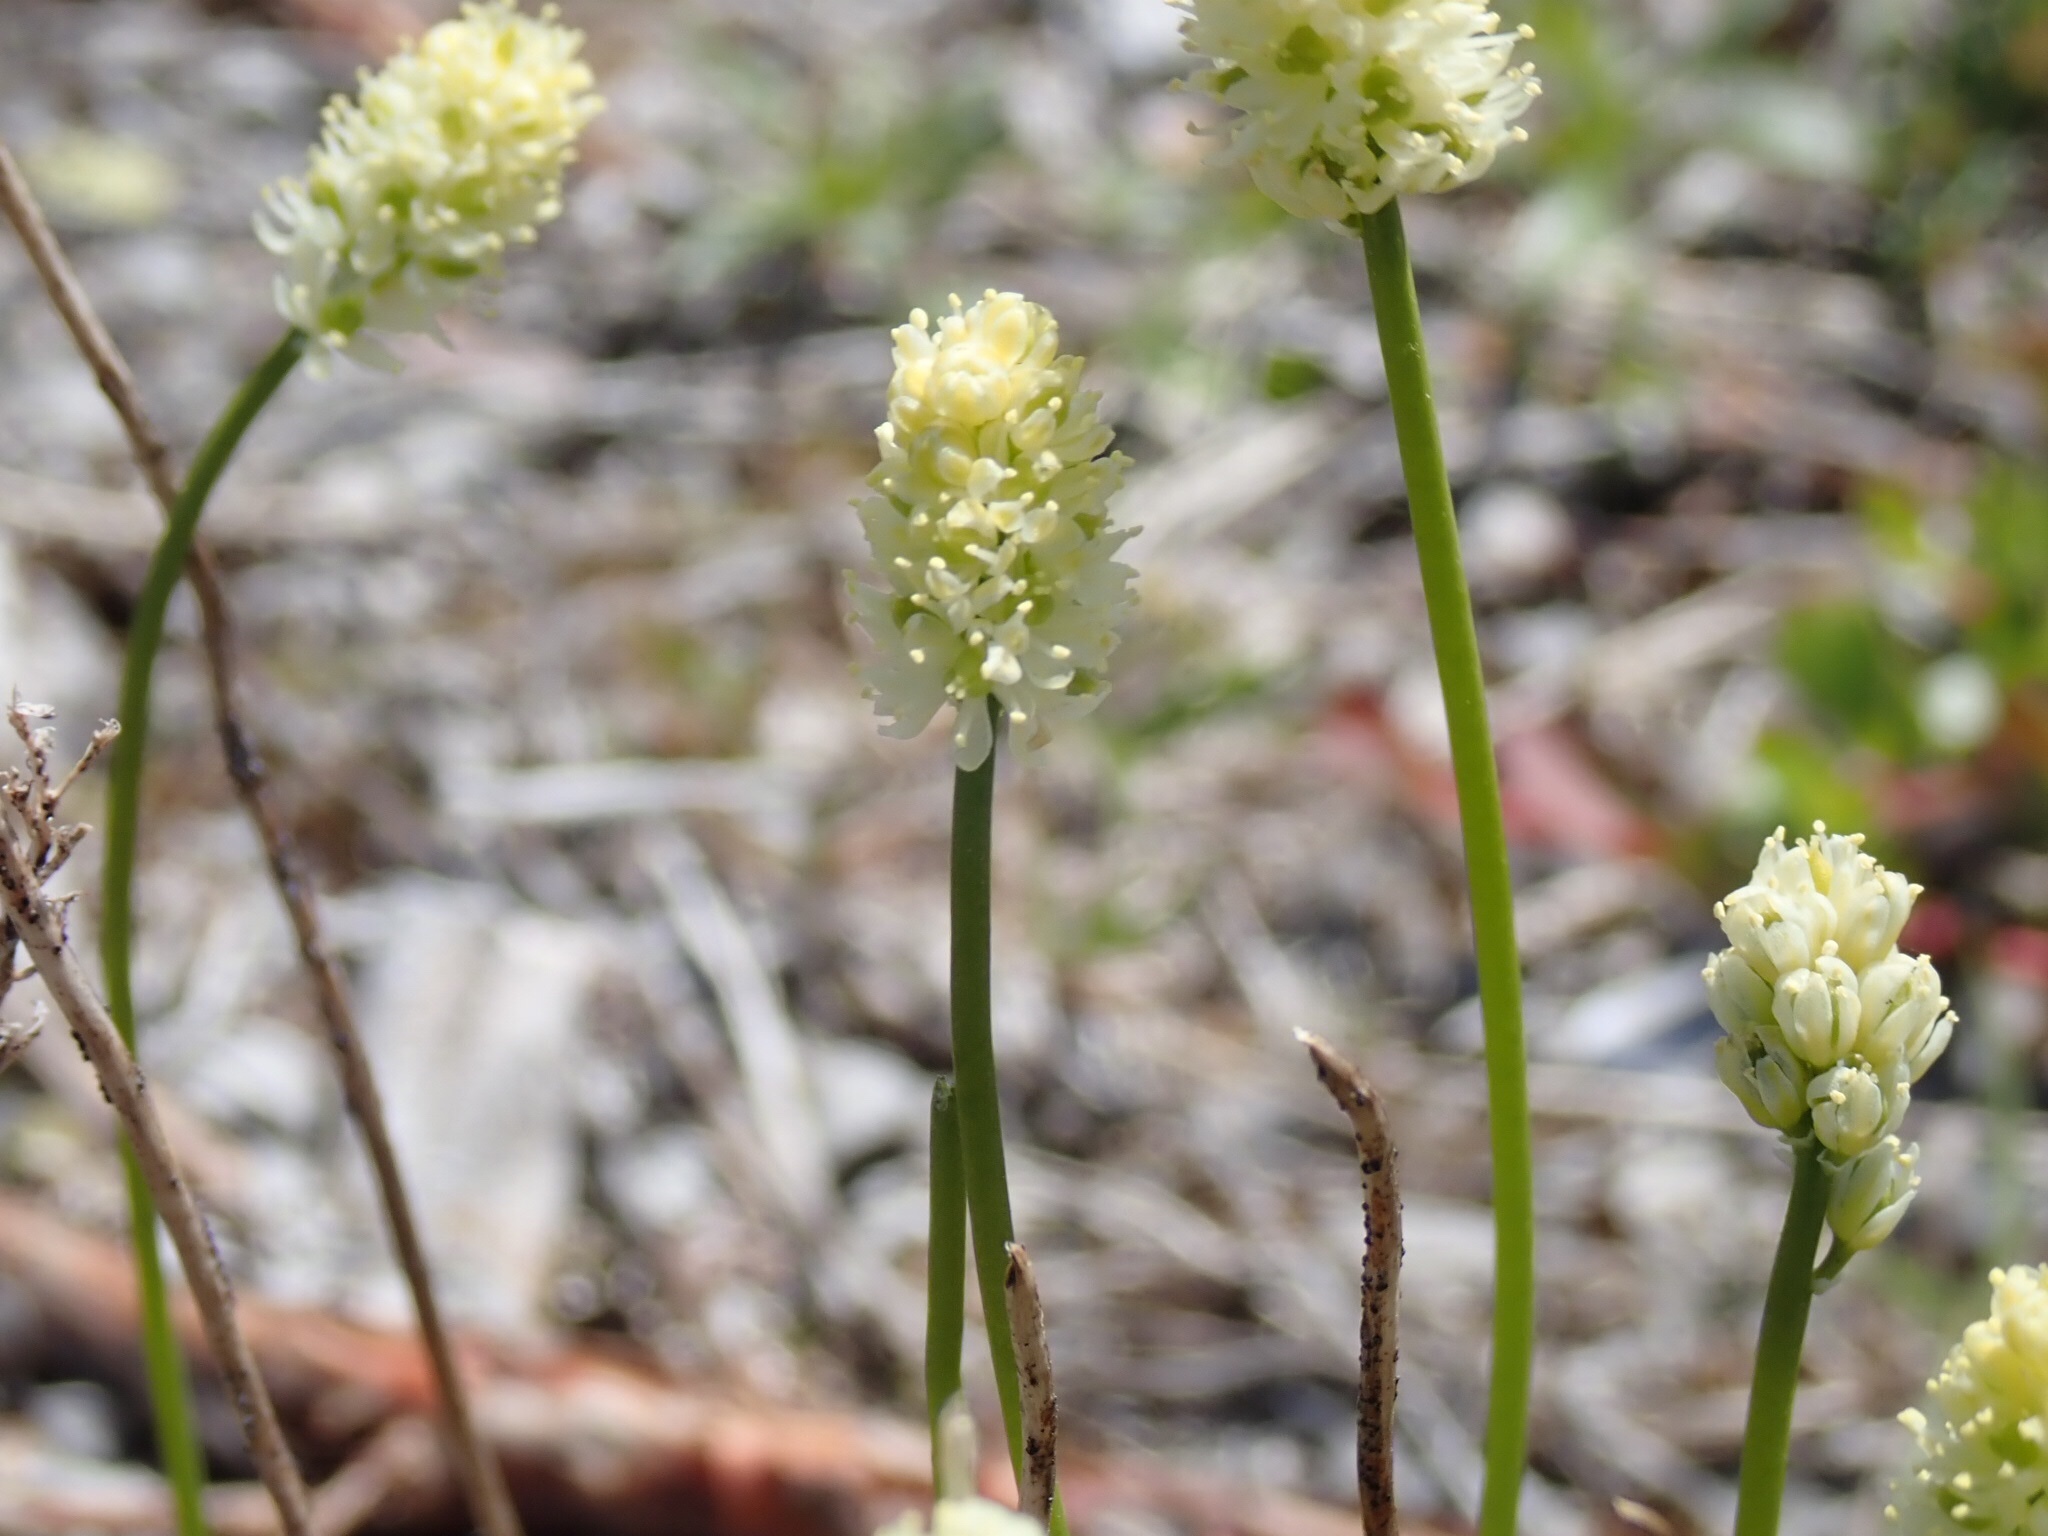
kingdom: Plantae
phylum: Tracheophyta
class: Liliopsida
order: Alismatales
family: Tofieldiaceae
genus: Tofieldia
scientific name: Tofieldia pusilla
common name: Scottish false asphodel
